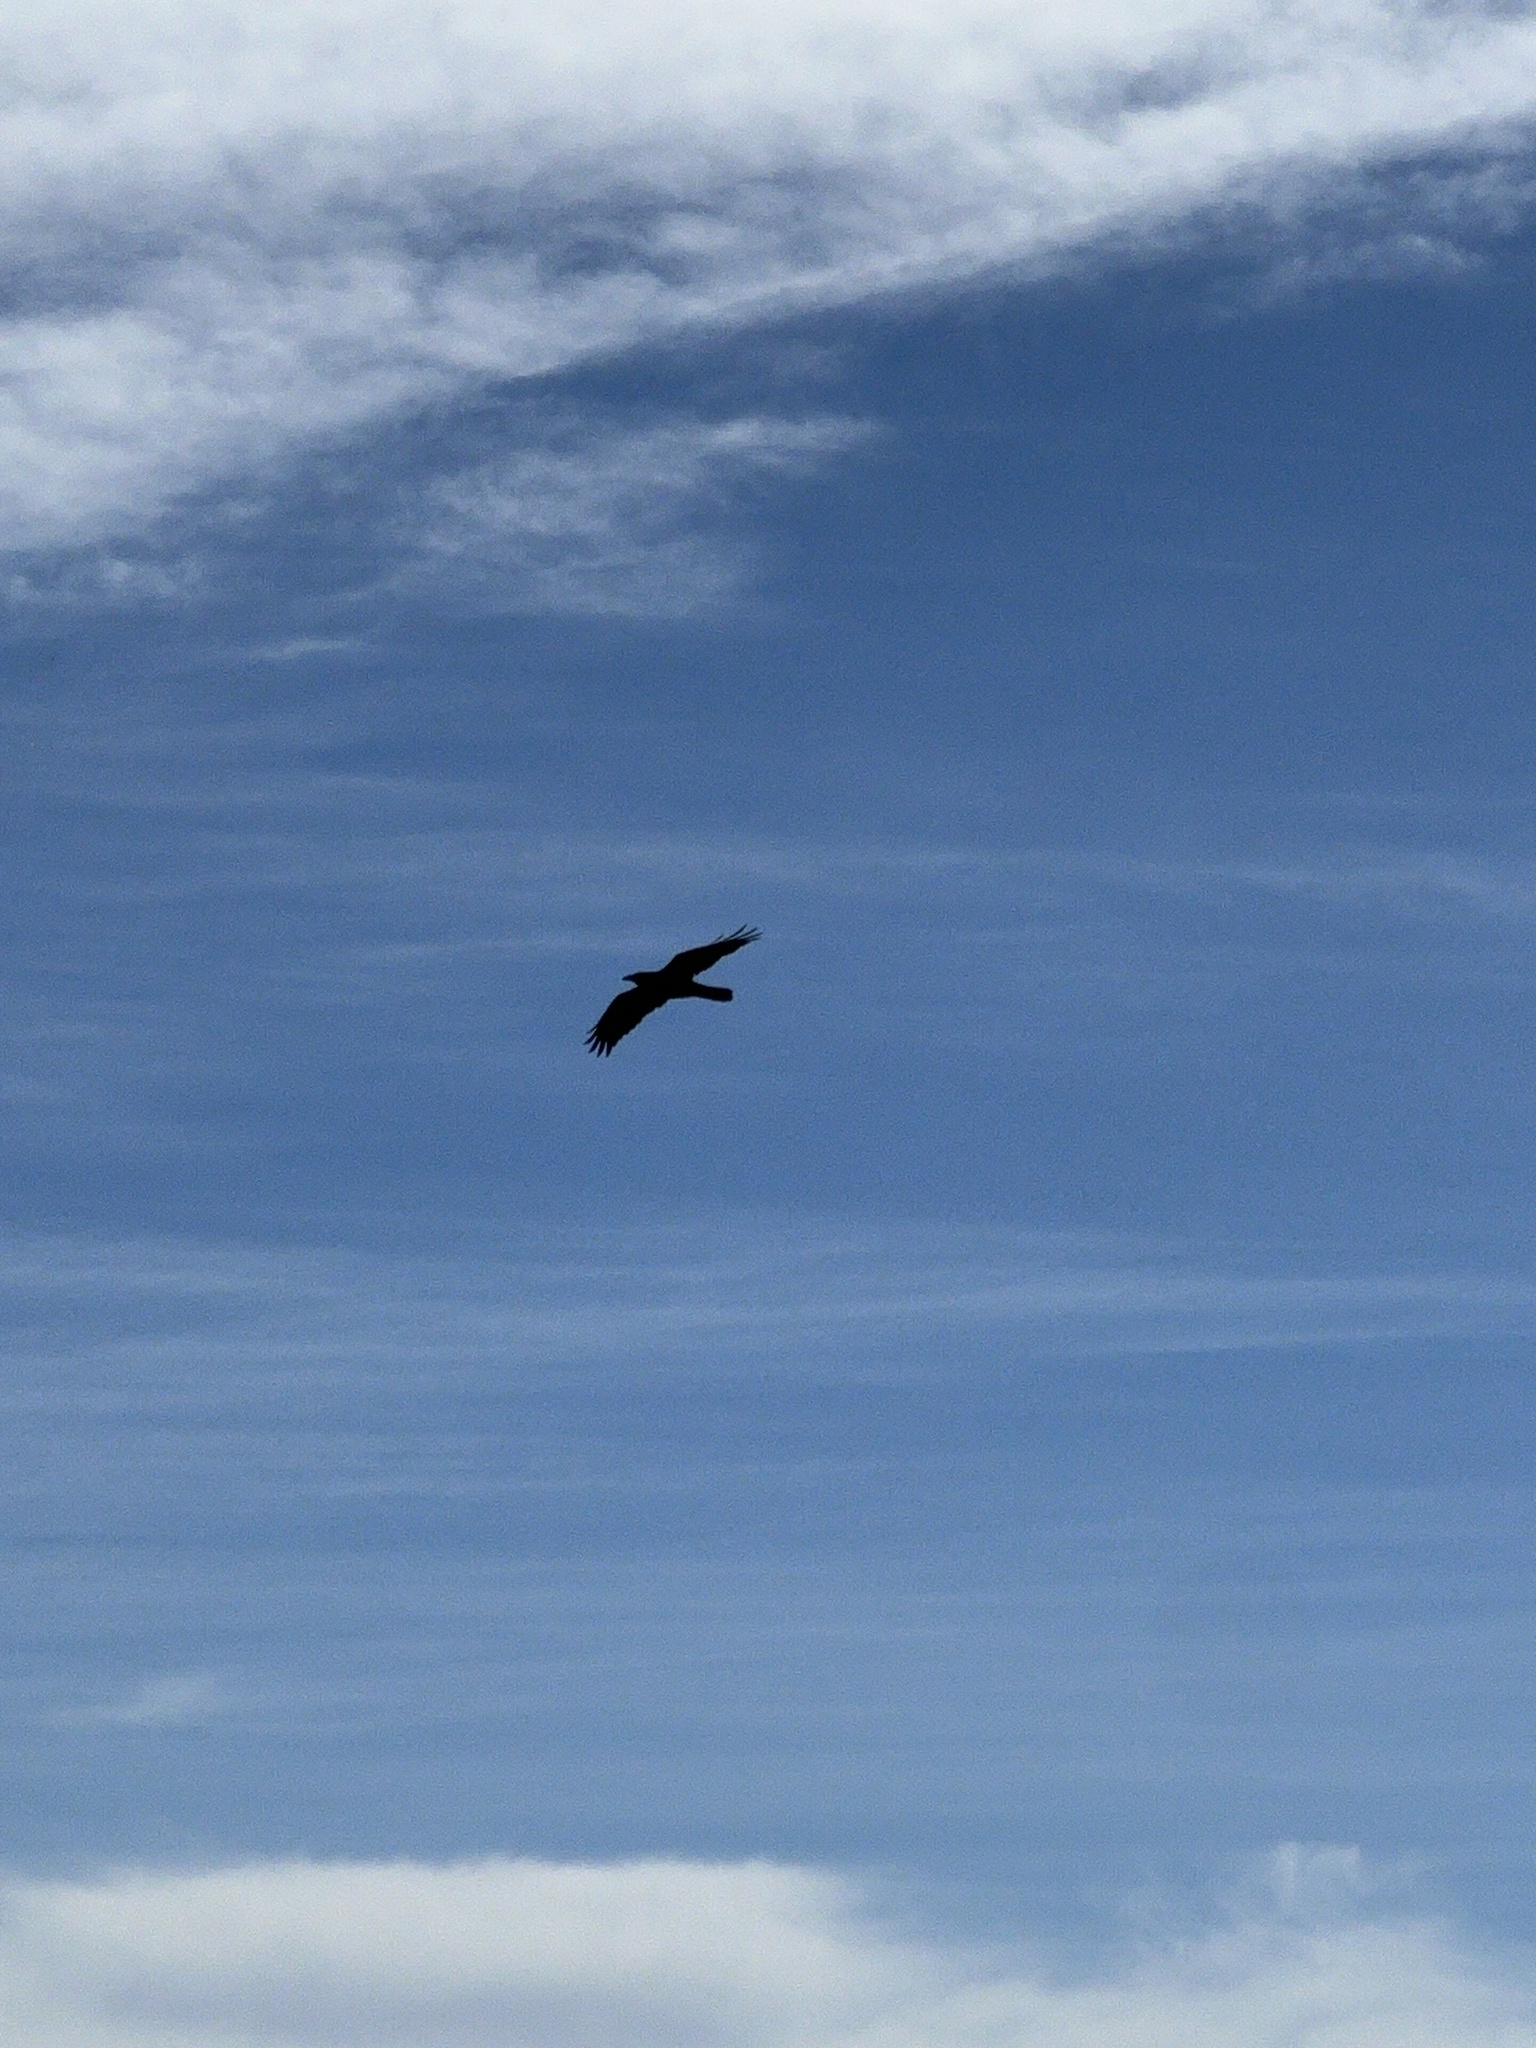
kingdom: Animalia
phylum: Chordata
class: Aves
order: Passeriformes
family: Corvidae
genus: Corvus
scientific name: Corvus corax
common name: Common raven
